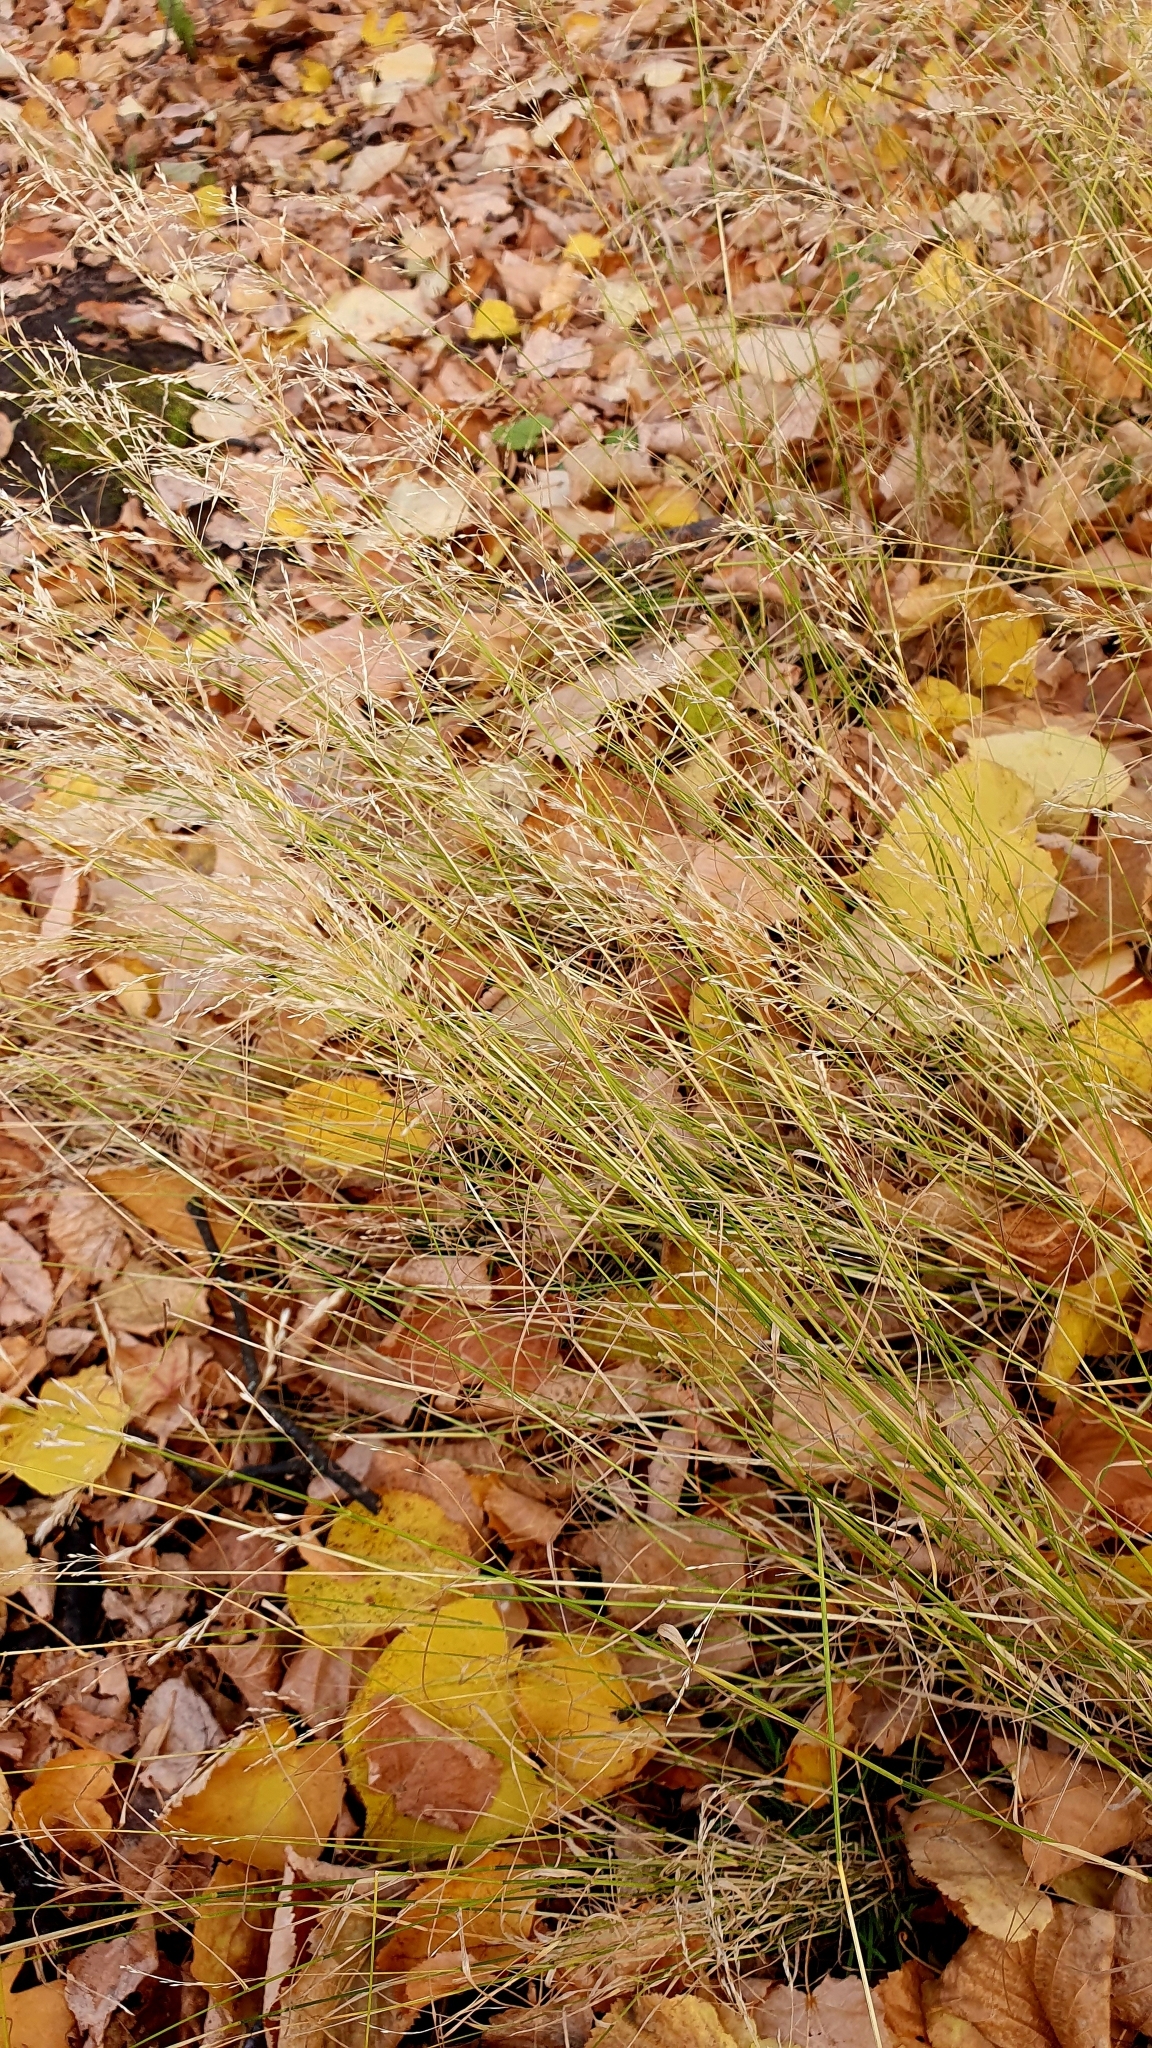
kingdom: Plantae
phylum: Tracheophyta
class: Liliopsida
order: Poales
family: Poaceae
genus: Poa
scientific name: Poa nemoralis
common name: Wood bluegrass
